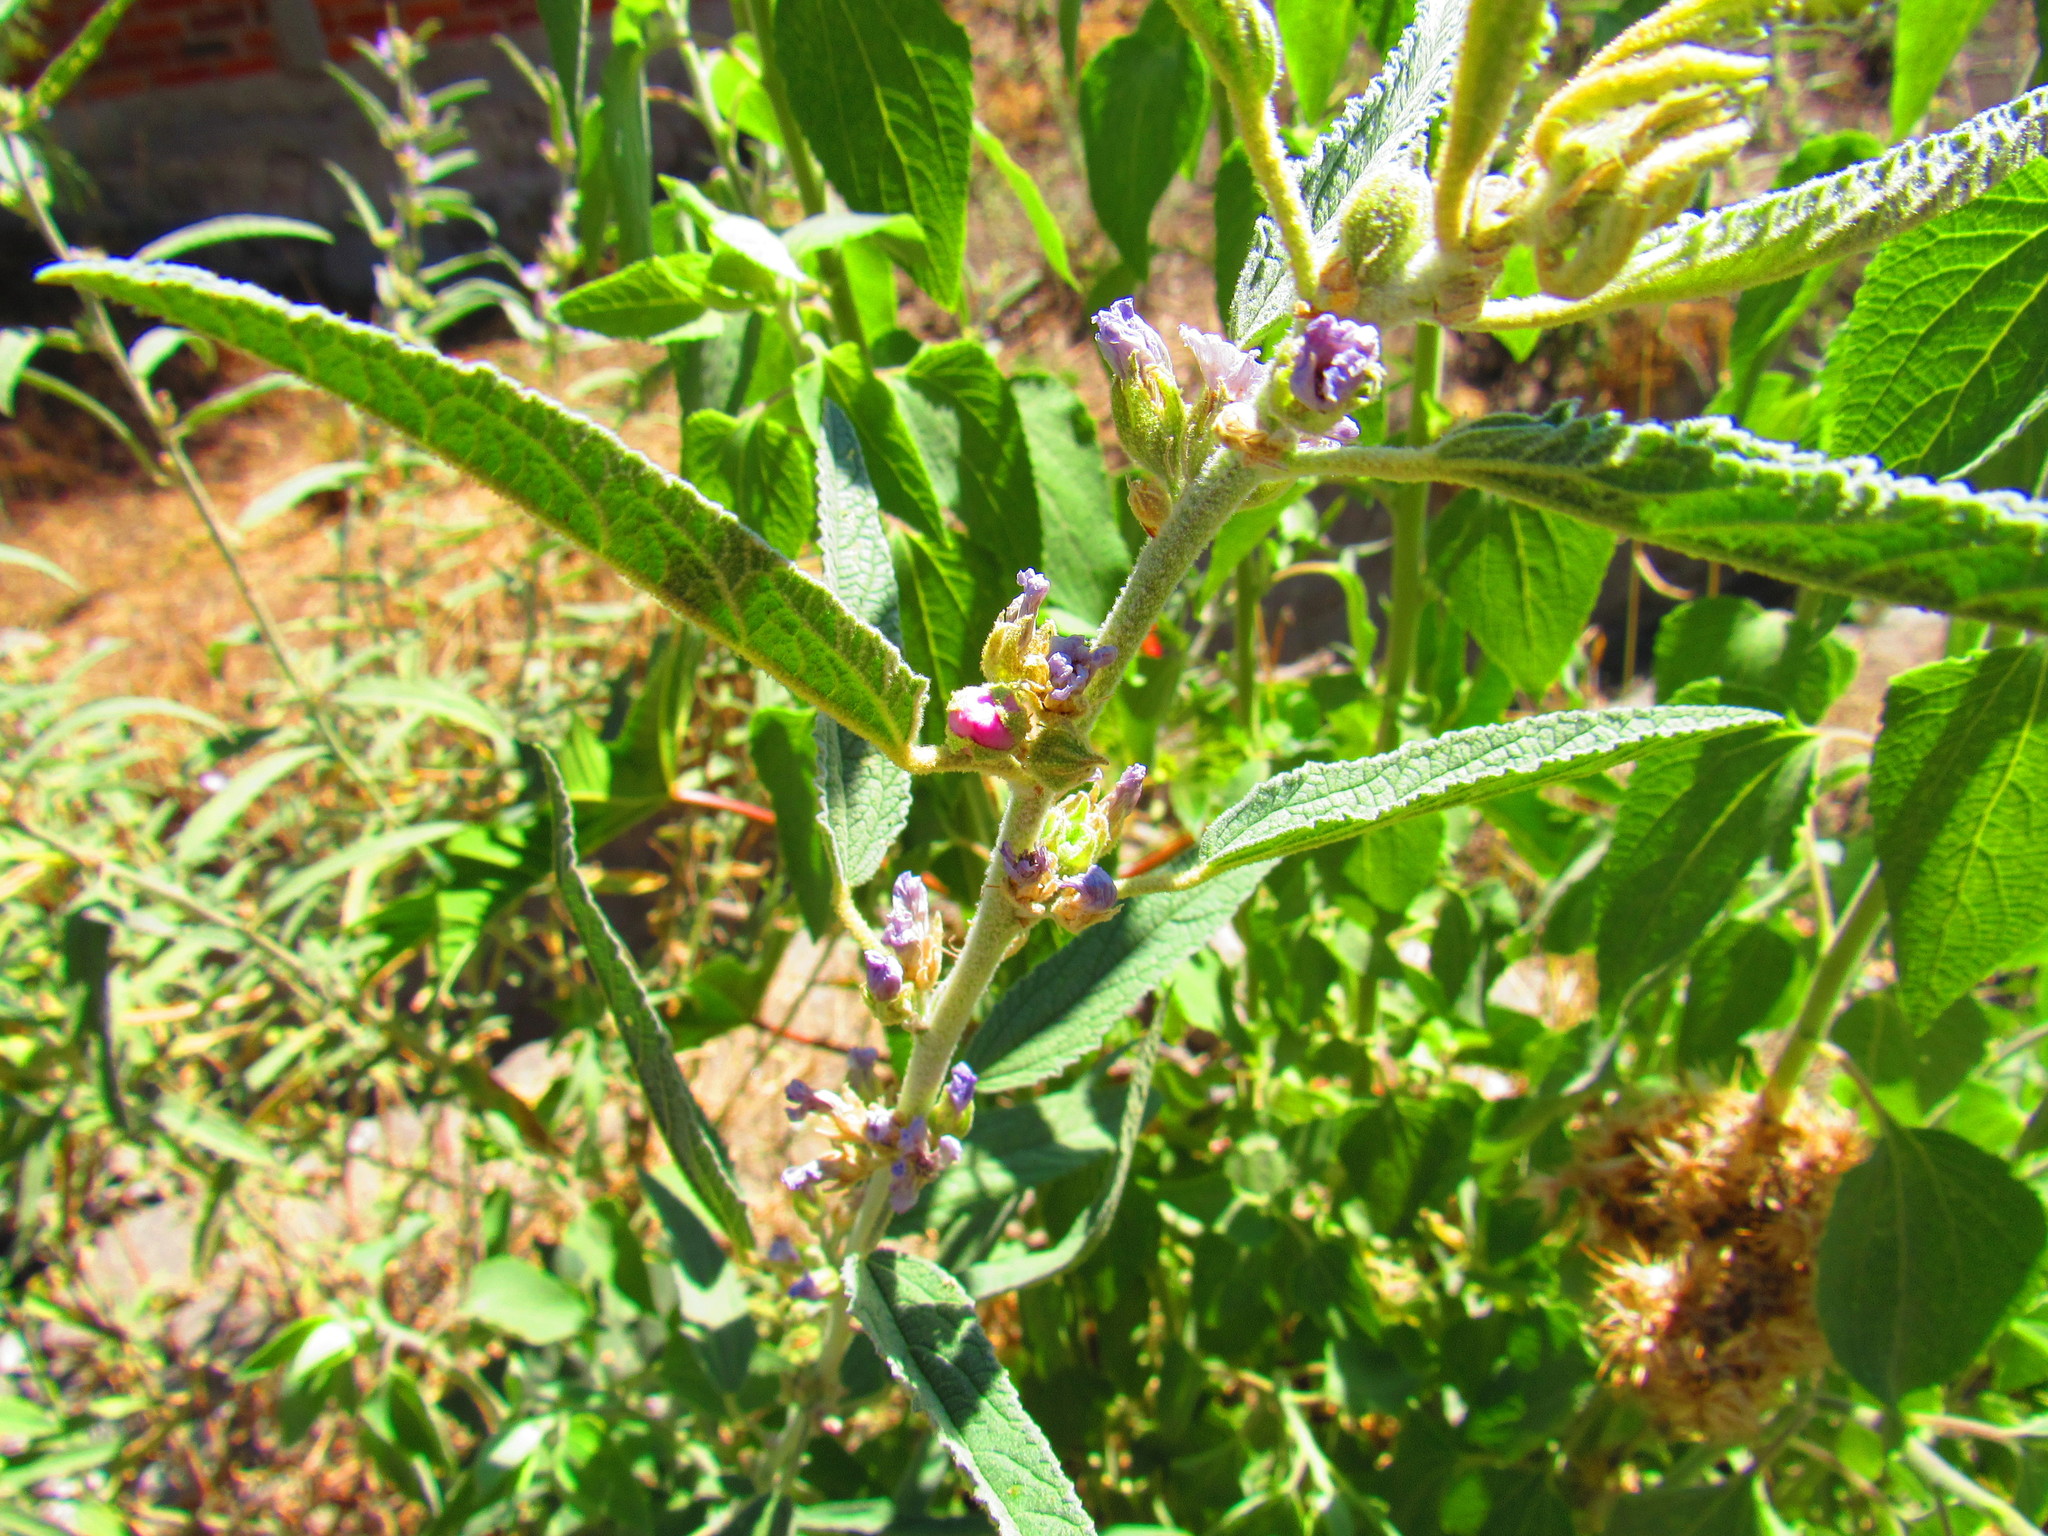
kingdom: Plantae
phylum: Tracheophyta
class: Magnoliopsida
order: Malvales
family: Malvaceae
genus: Sphaeralcea
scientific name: Sphaeralcea angustifolia
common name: Copper globe-mallow
